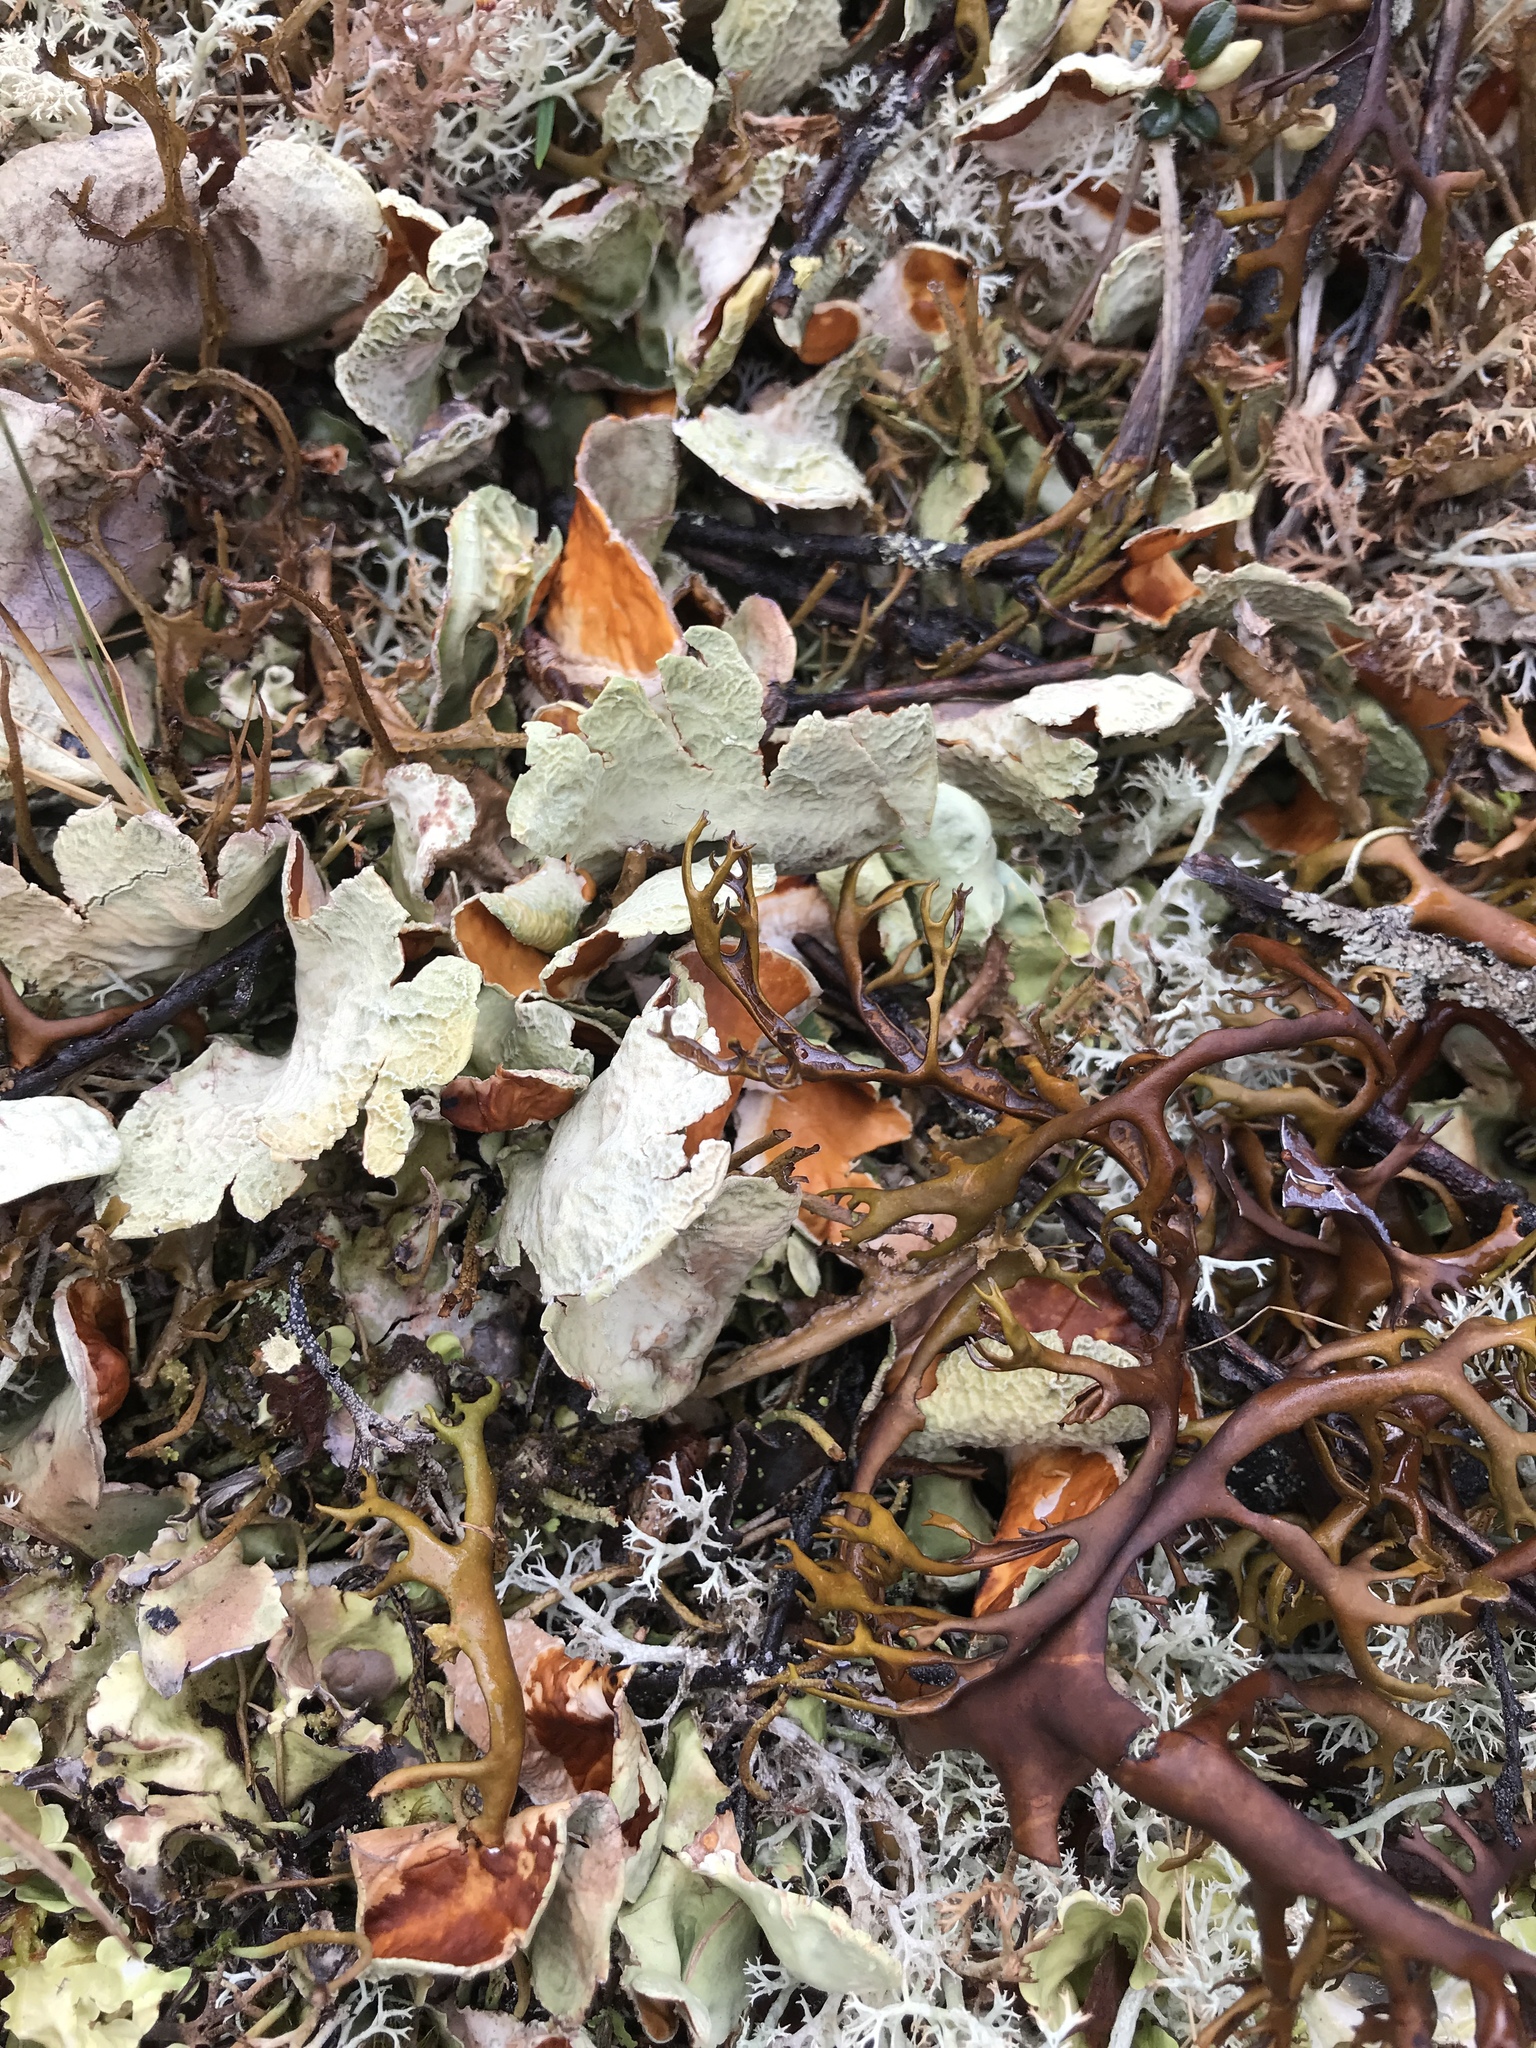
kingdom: Fungi
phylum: Ascomycota
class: Lecanoromycetes
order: Peltigerales
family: Nephromataceae
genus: Nephroma
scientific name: Nephroma arcticum
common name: Arctic kidney-lichen
